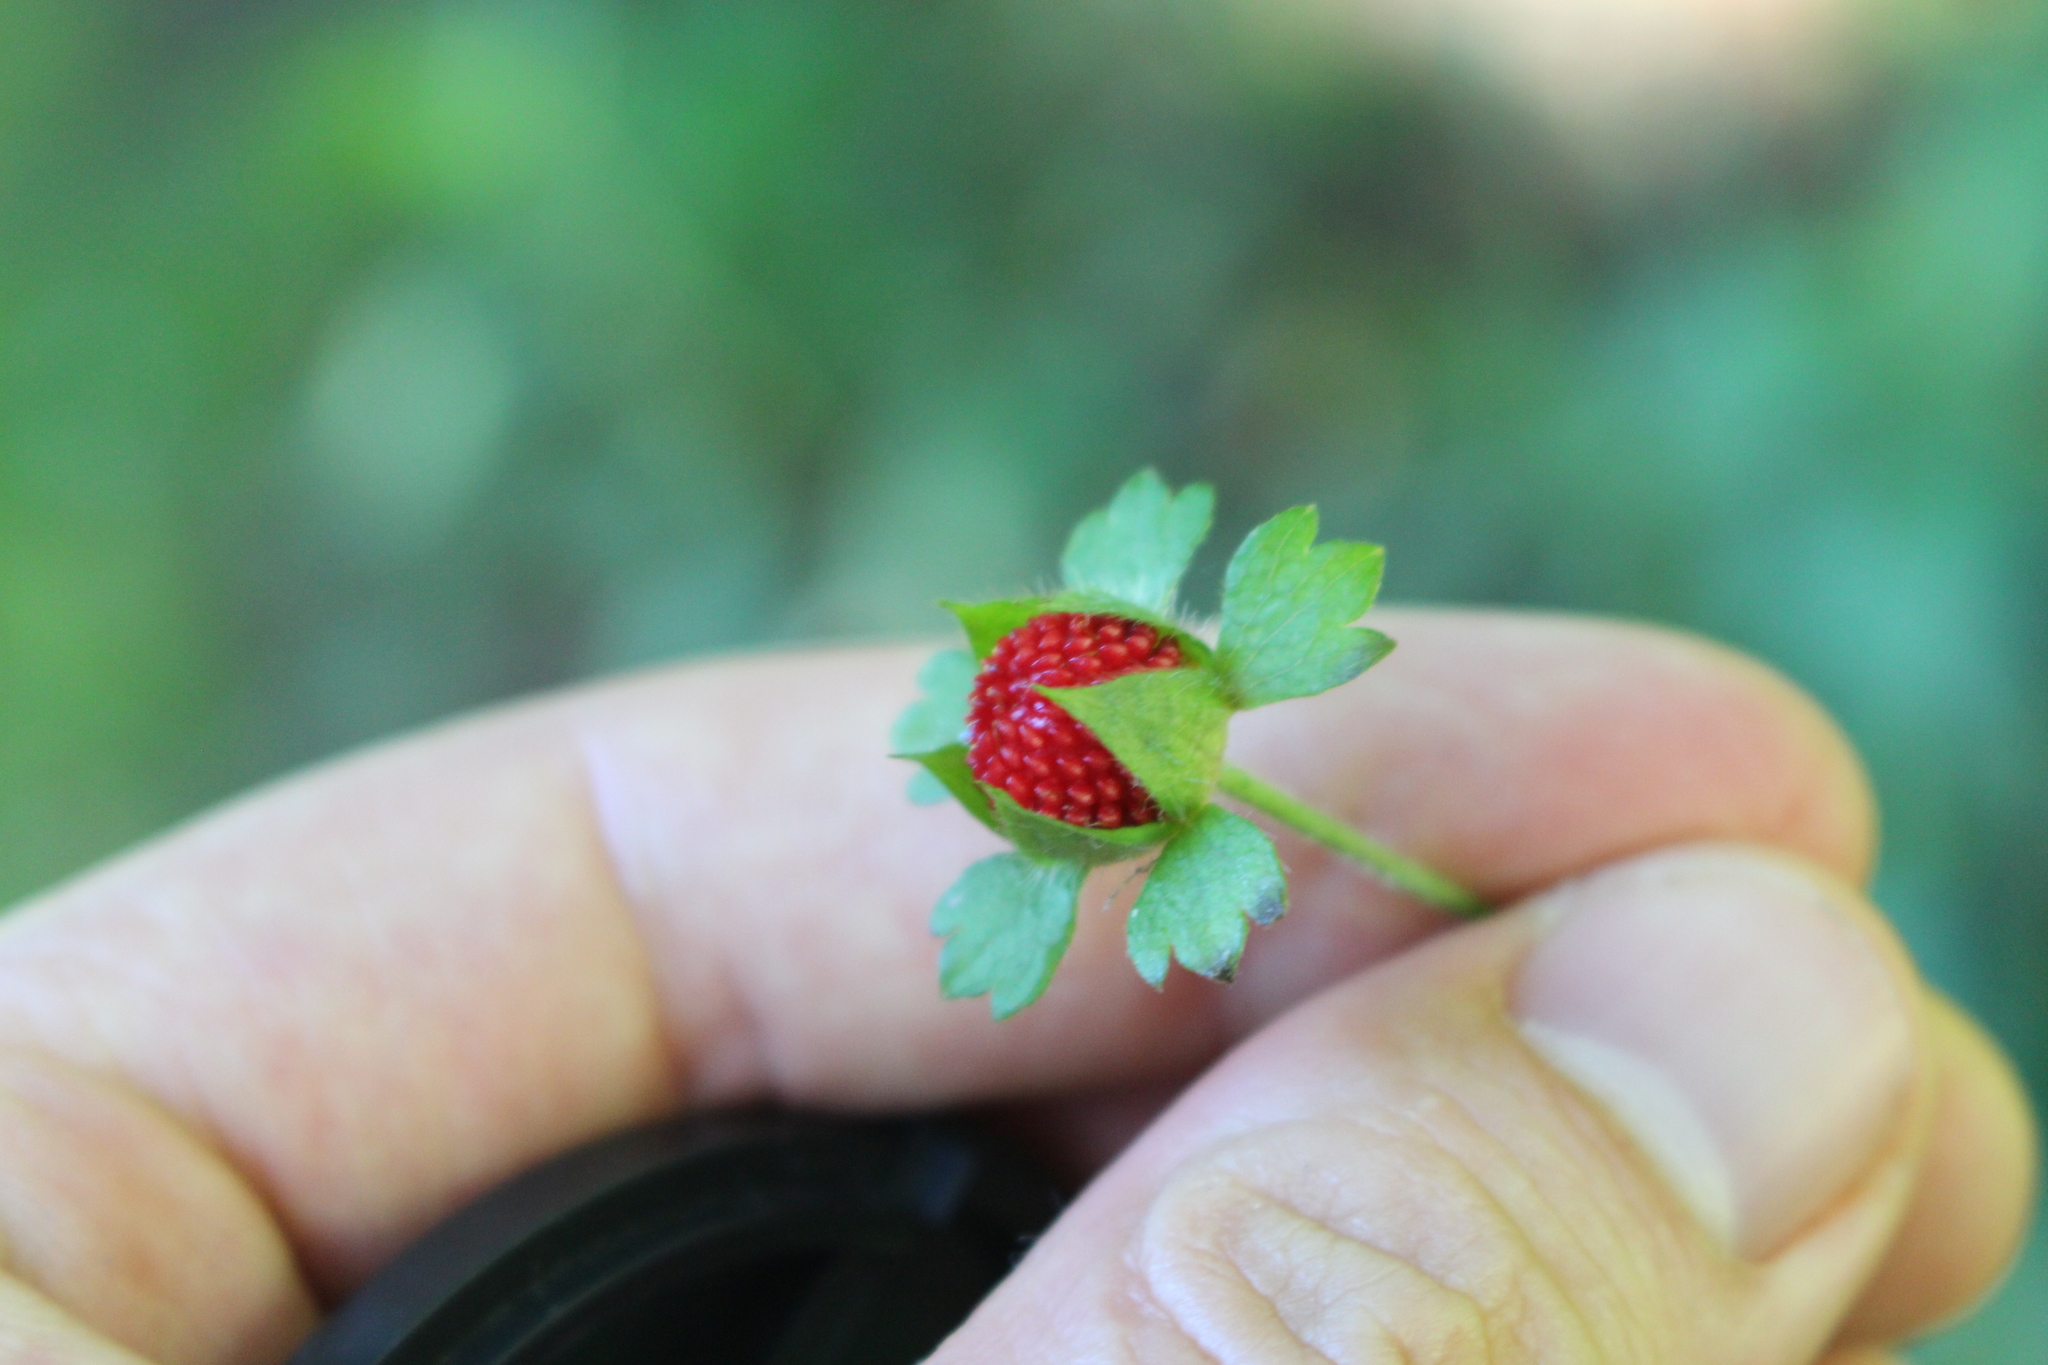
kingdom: Plantae
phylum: Tracheophyta
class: Magnoliopsida
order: Rosales
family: Rosaceae
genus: Potentilla
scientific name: Potentilla indica
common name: Yellow-flowered strawberry
